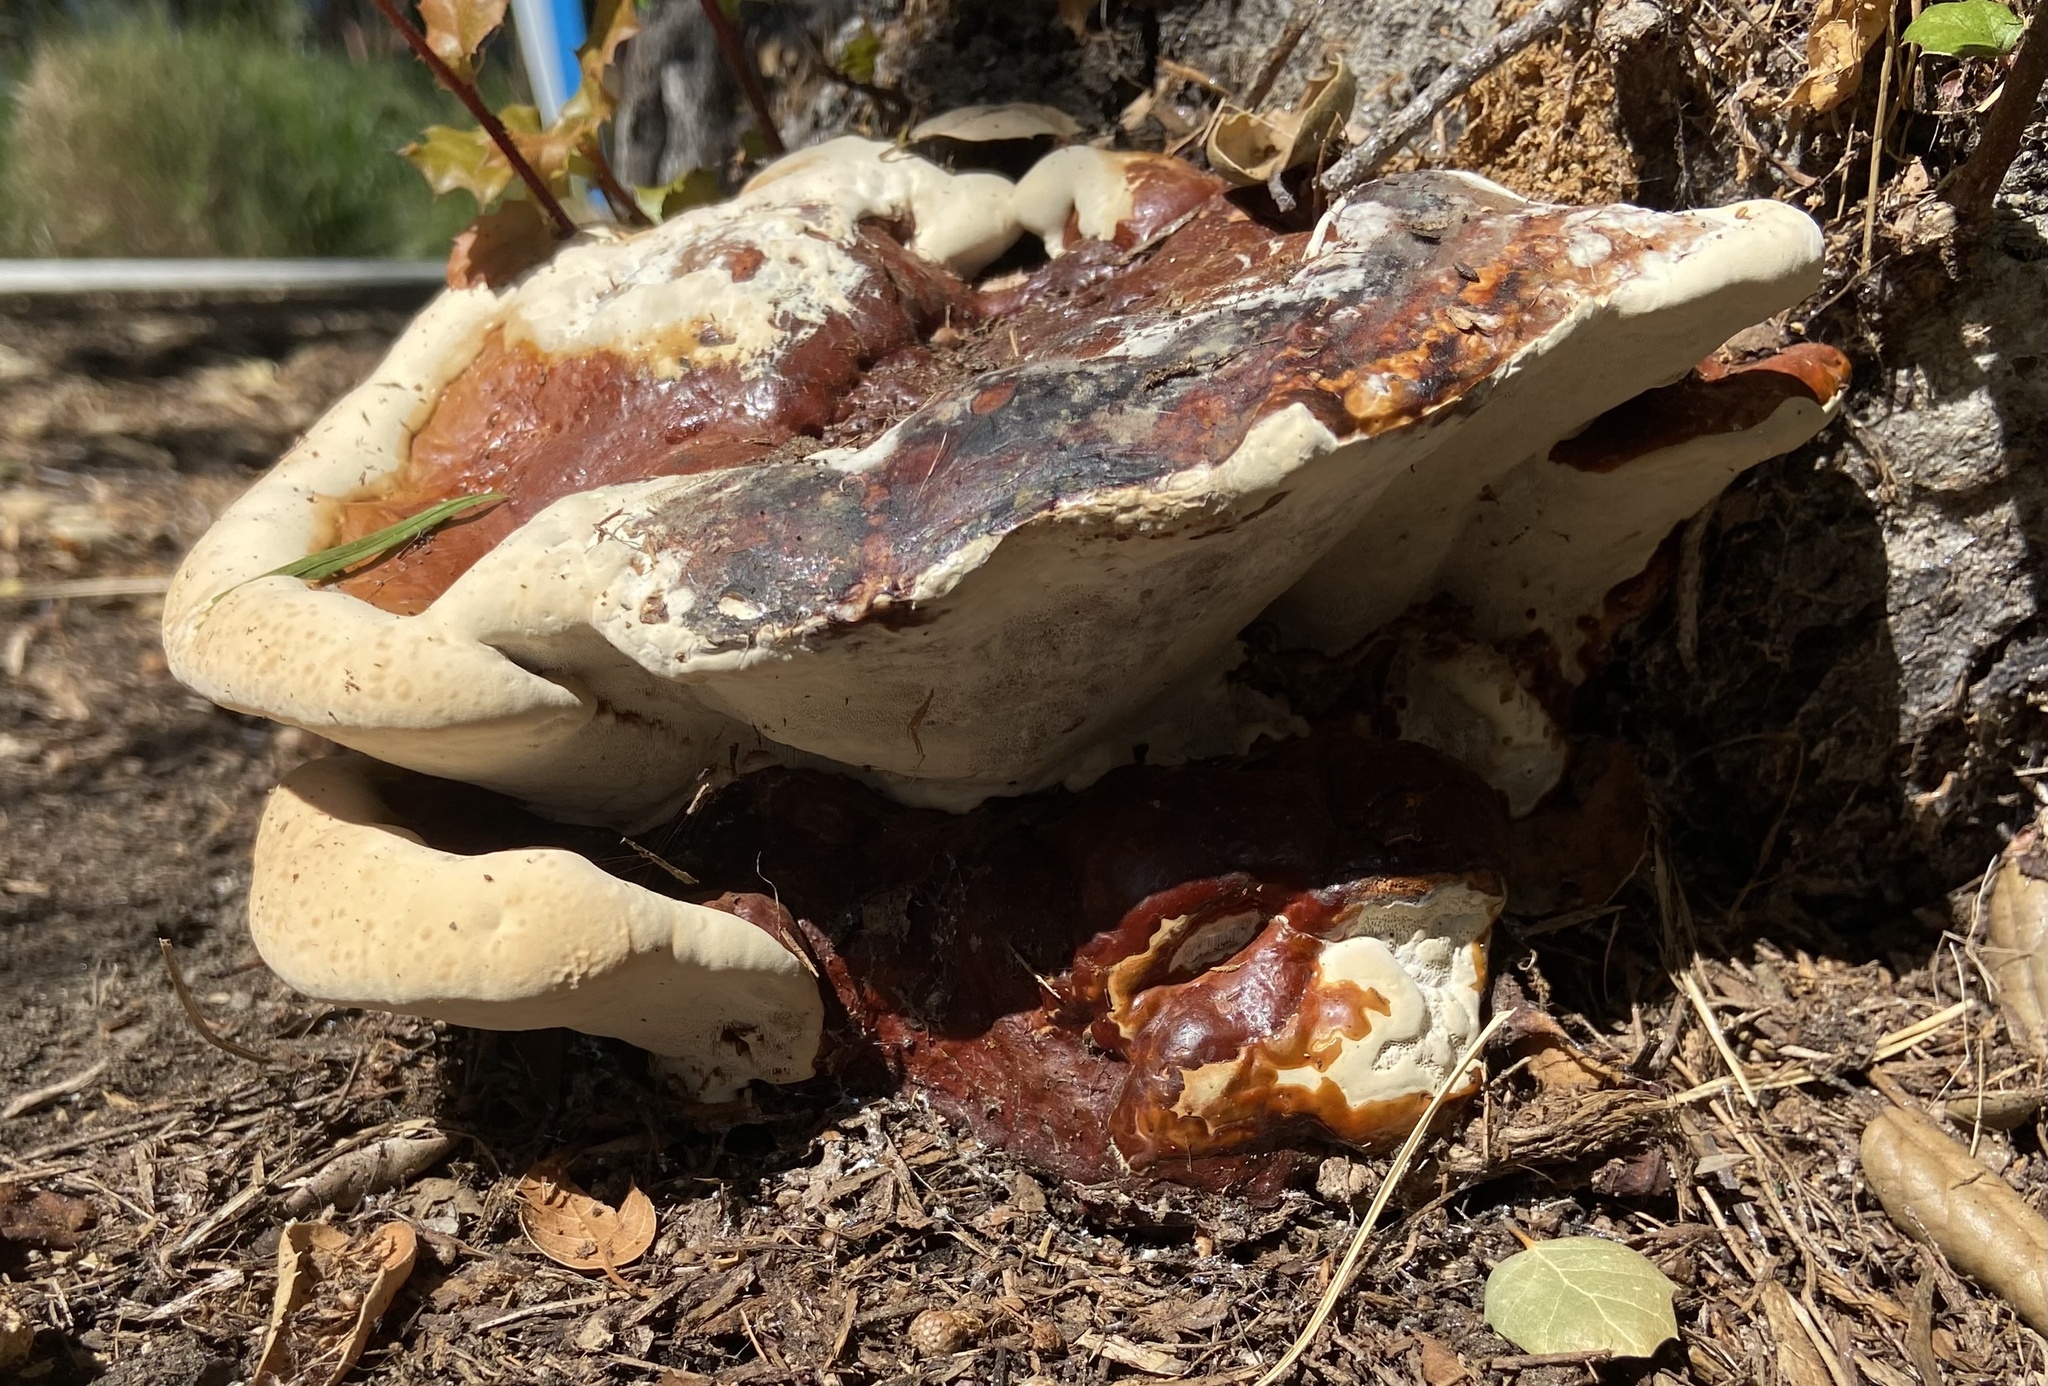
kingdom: Fungi
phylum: Basidiomycota
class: Agaricomycetes
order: Polyporales
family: Polyporaceae
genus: Ganoderma
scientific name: Ganoderma polychromum
